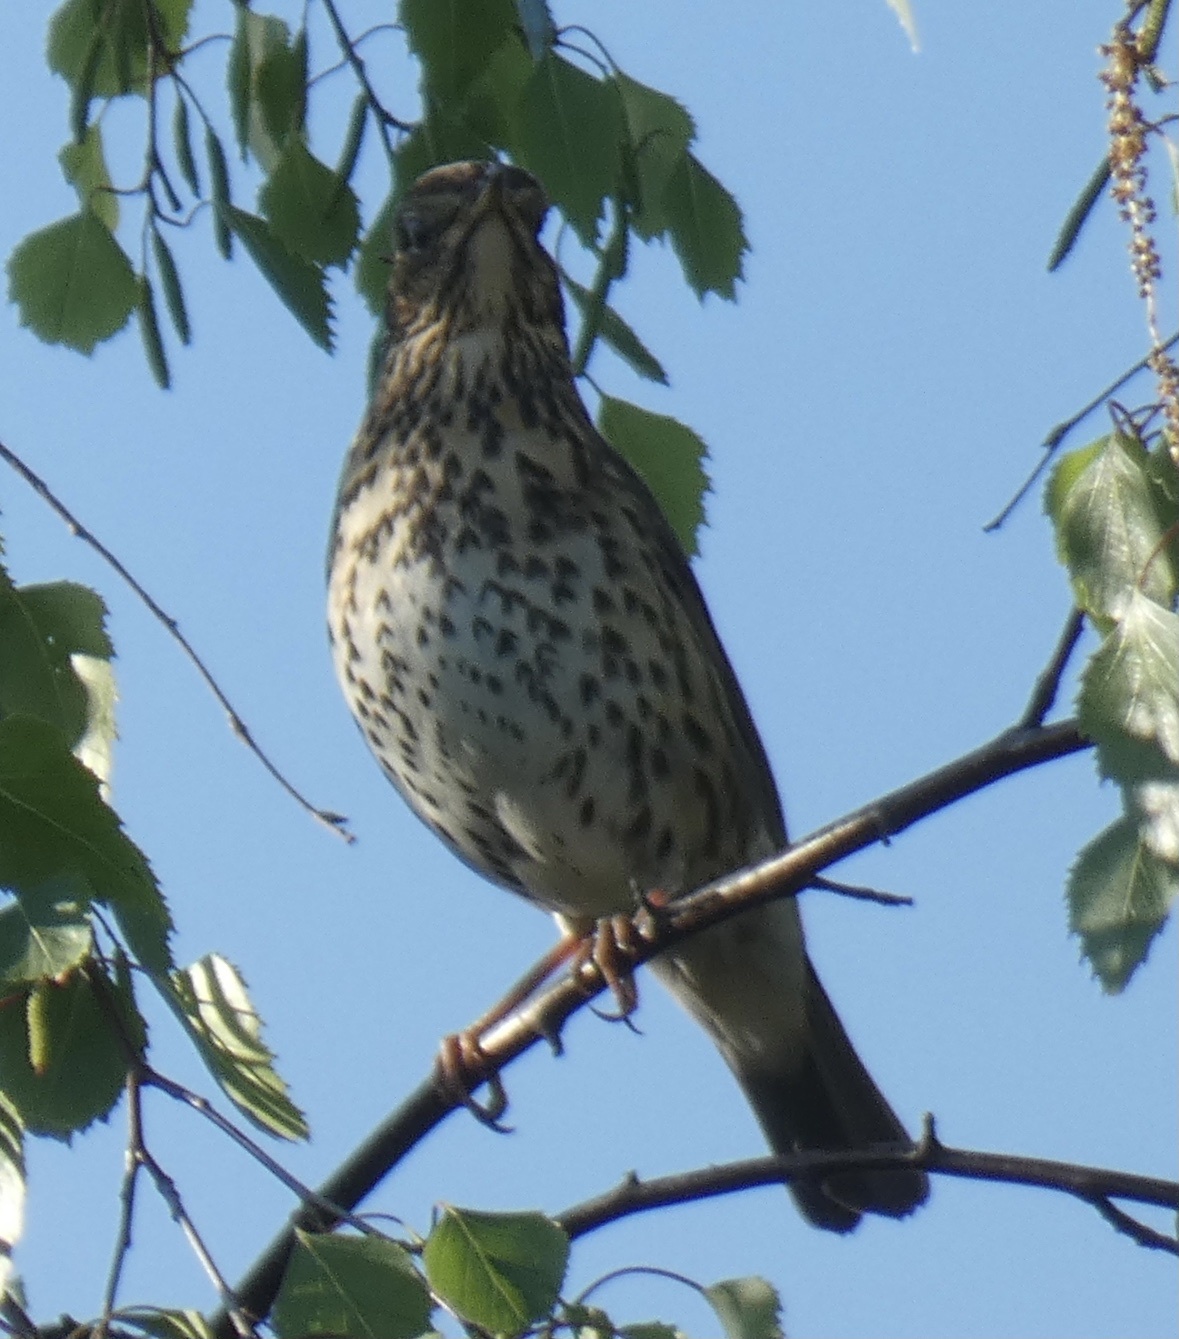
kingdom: Animalia
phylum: Chordata
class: Aves
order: Passeriformes
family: Turdidae
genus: Turdus
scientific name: Turdus philomelos
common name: Song thrush
